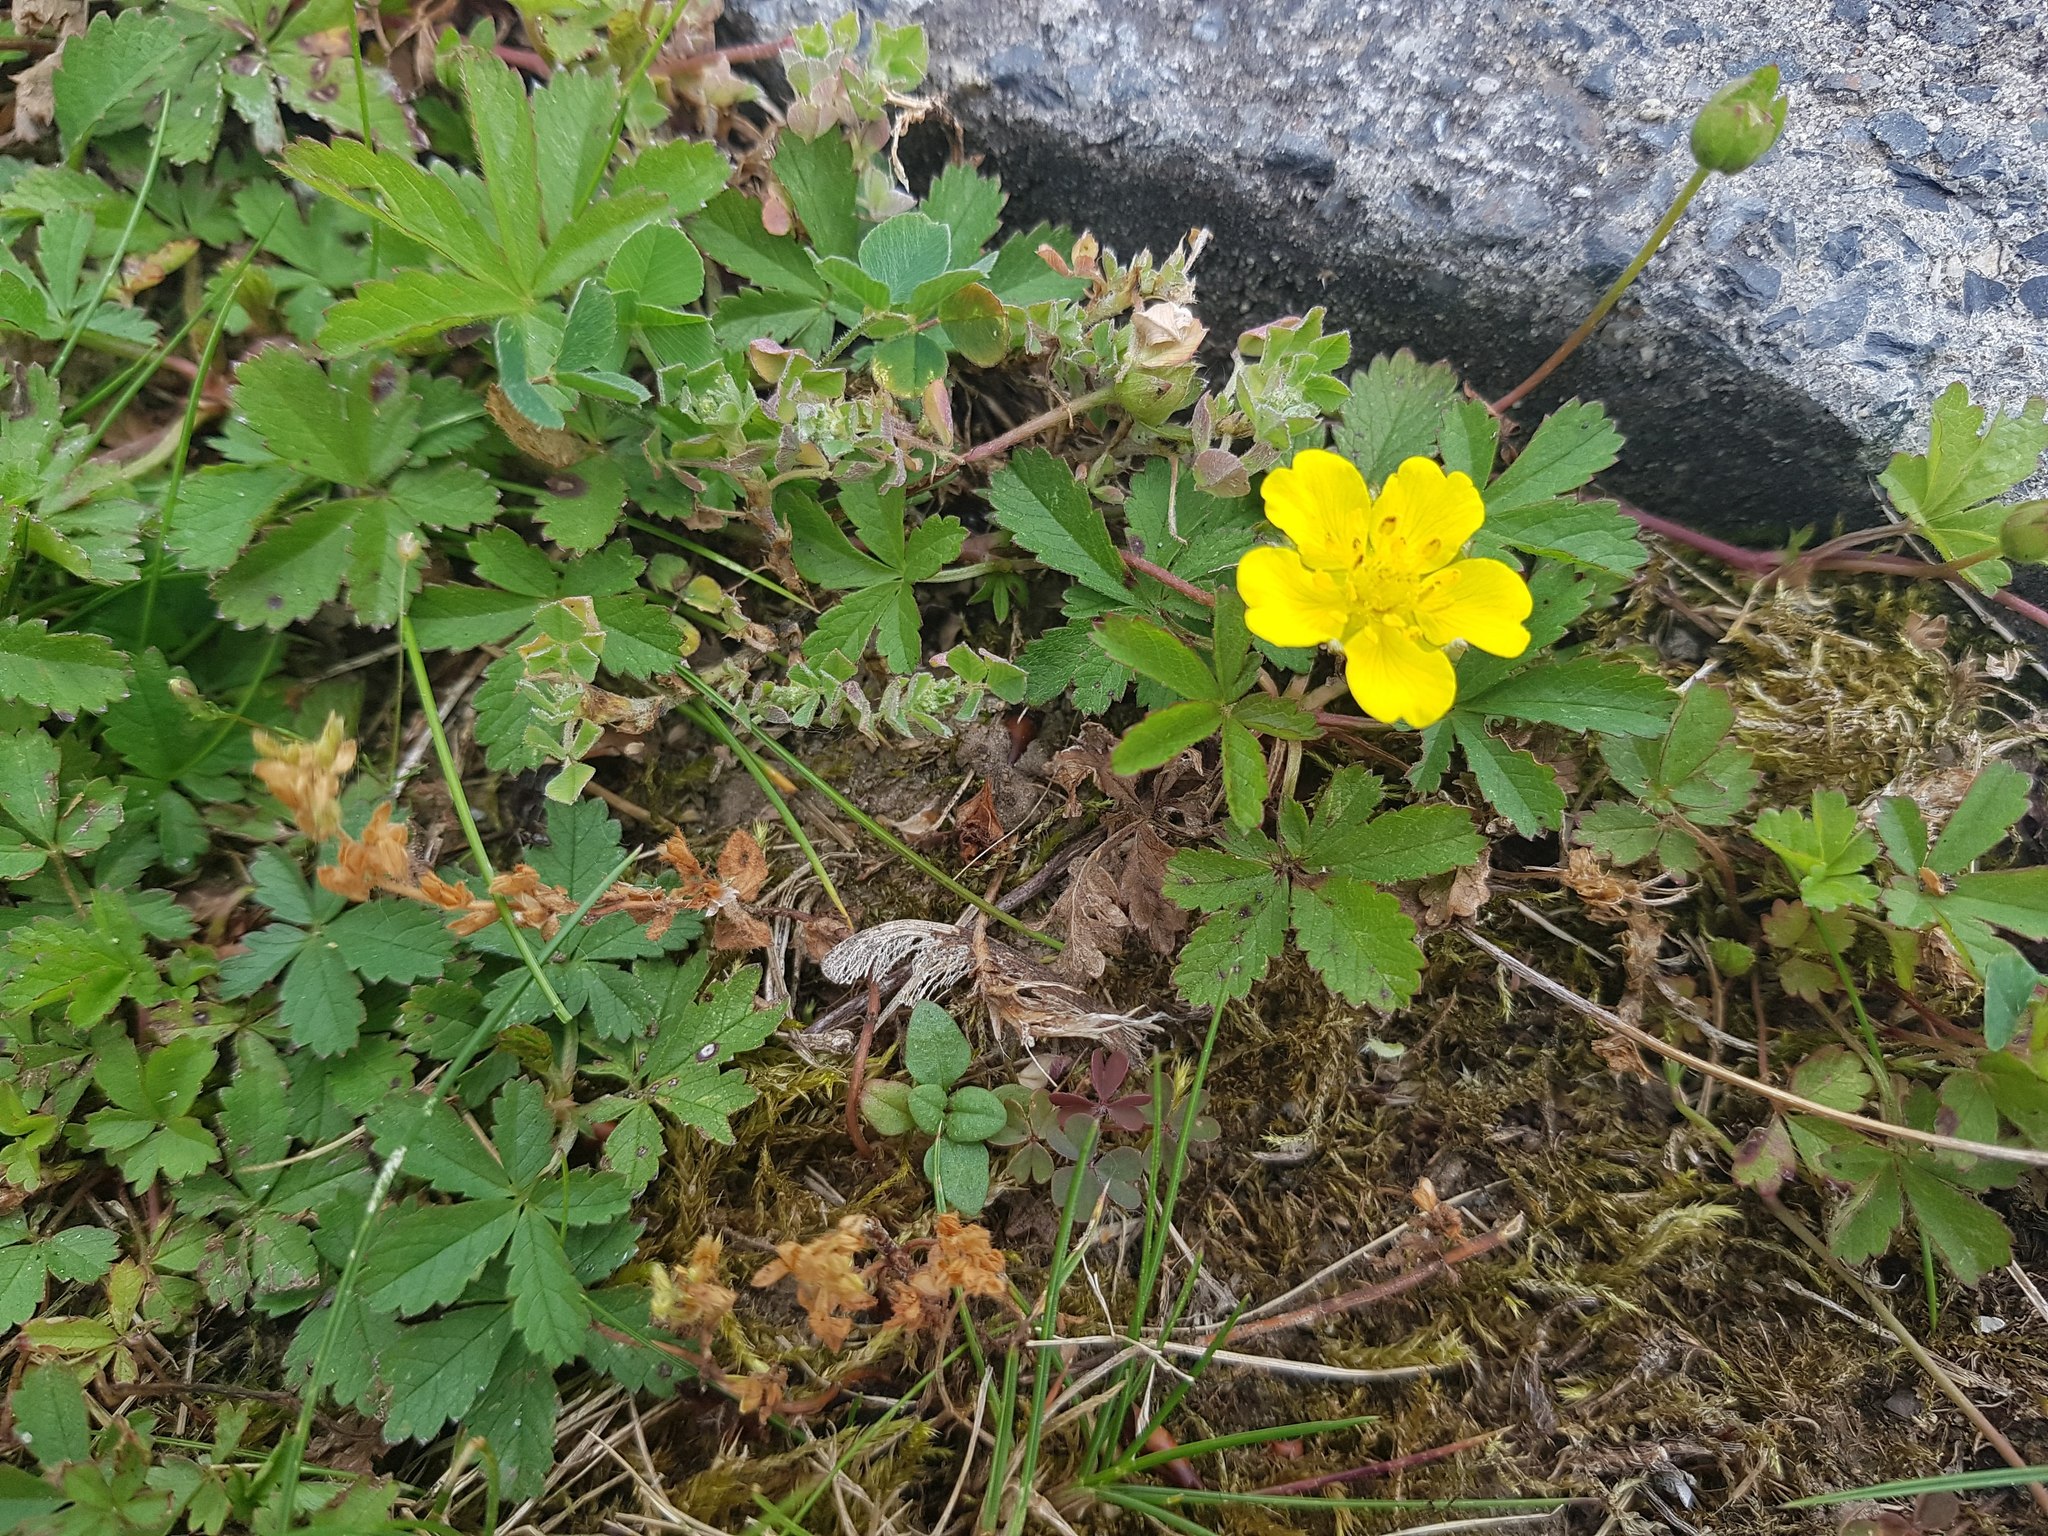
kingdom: Plantae
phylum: Tracheophyta
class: Magnoliopsida
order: Rosales
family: Rosaceae
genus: Potentilla
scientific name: Potentilla reptans
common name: Creeping cinquefoil
